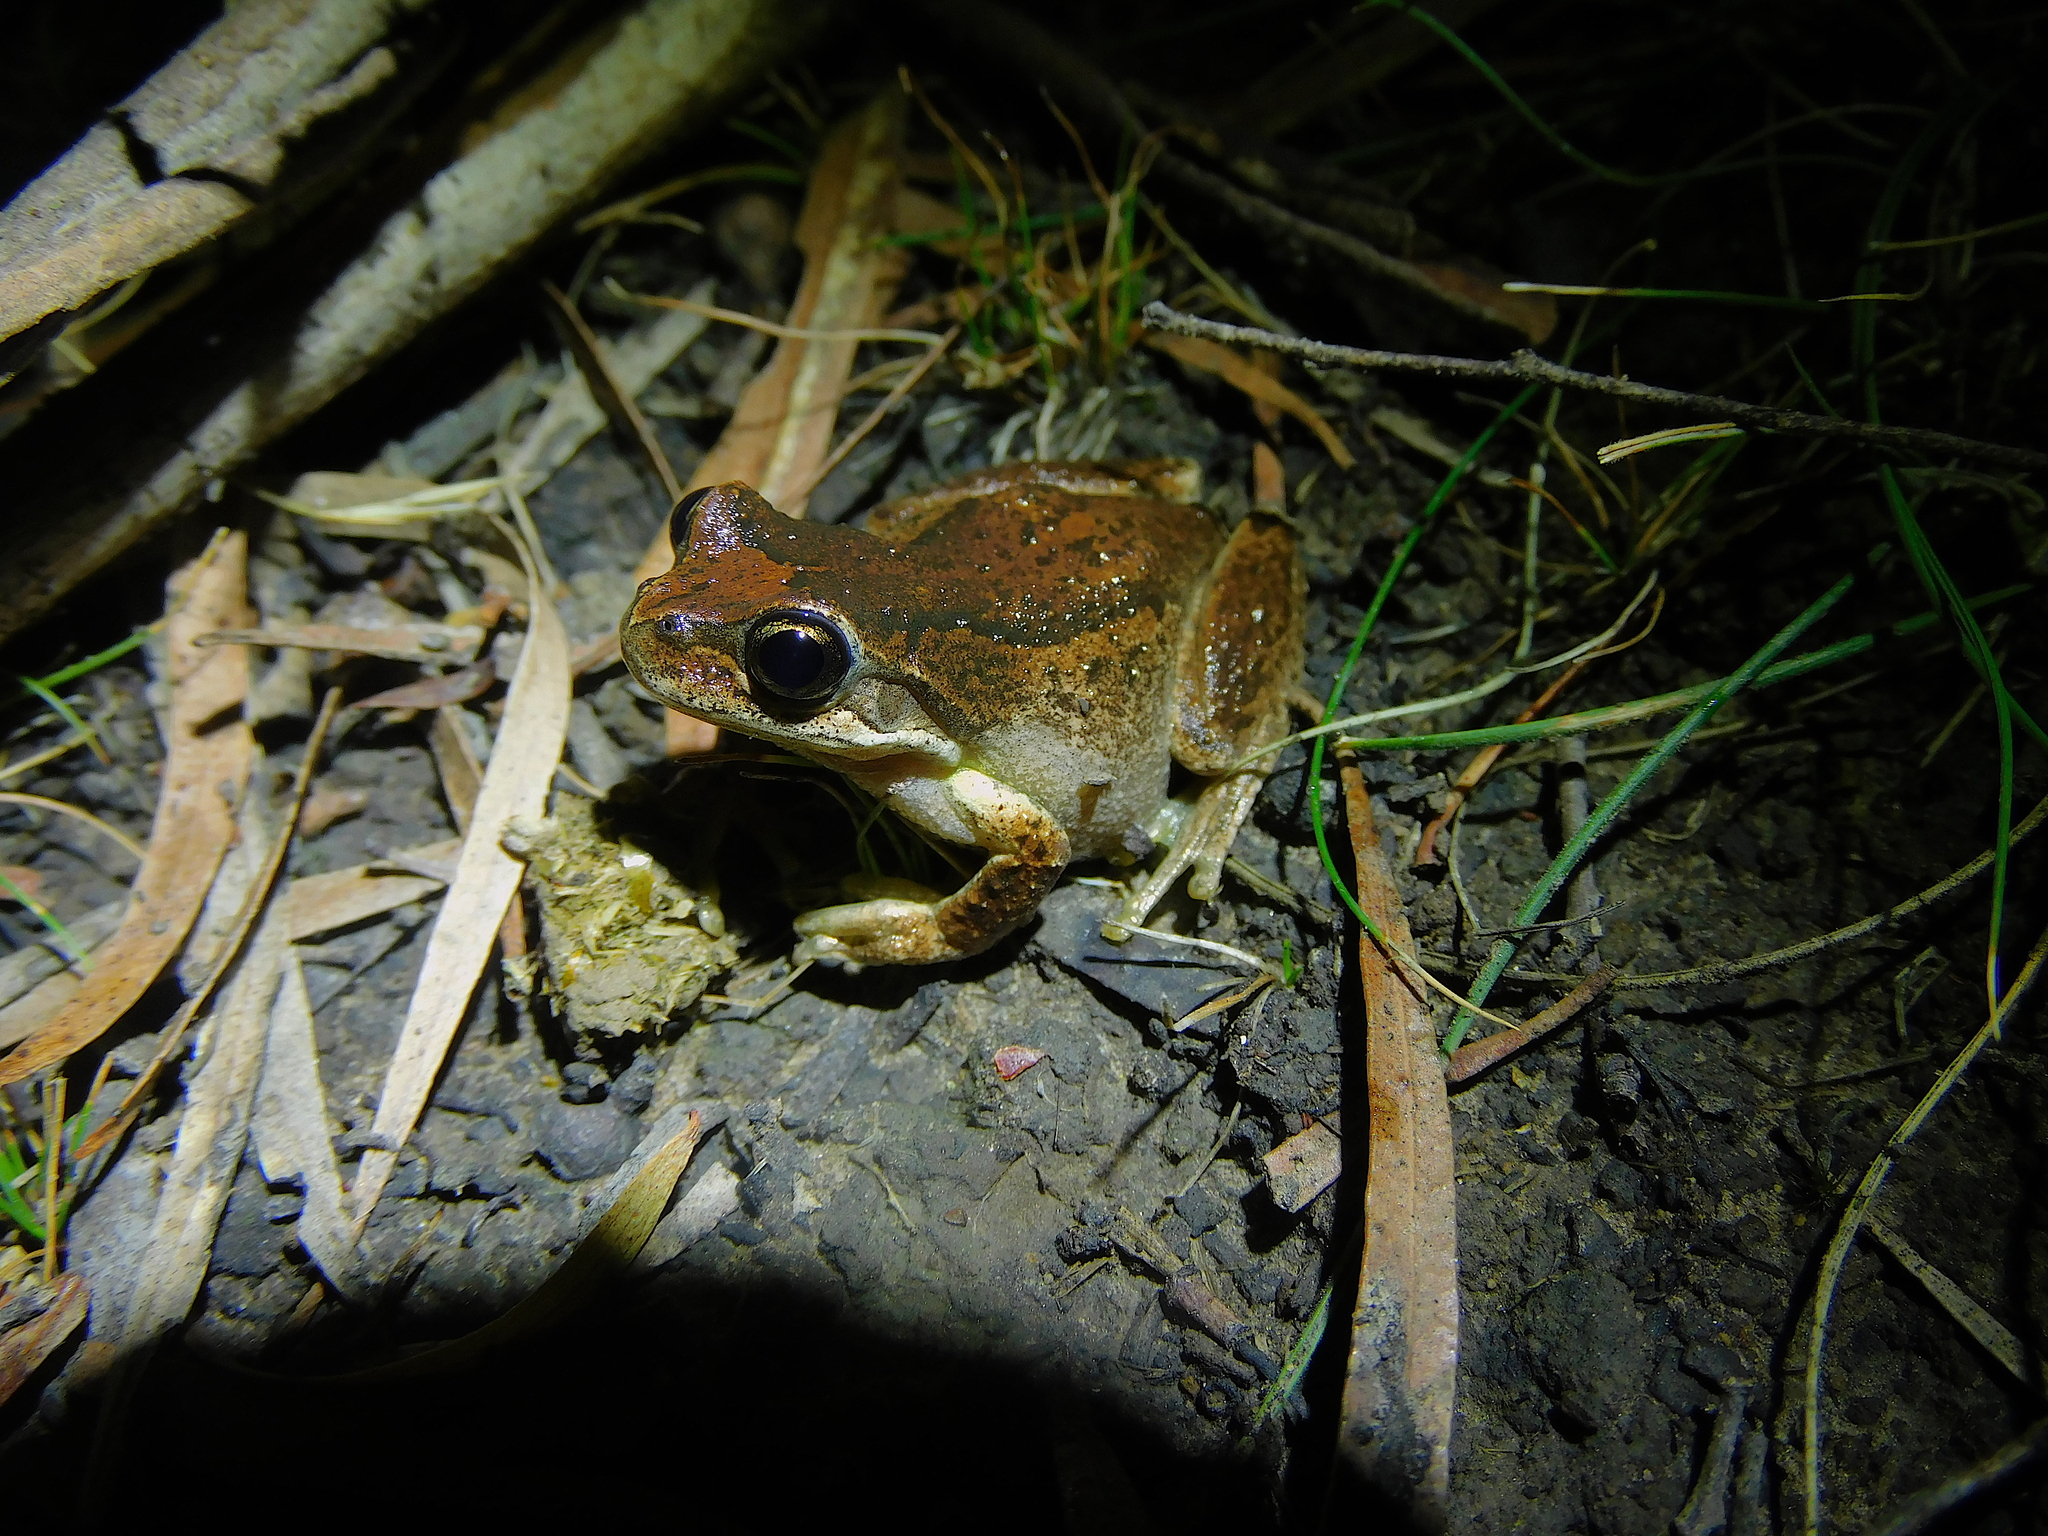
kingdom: Animalia
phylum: Chordata
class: Amphibia
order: Anura
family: Pelodryadidae
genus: Litoria
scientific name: Litoria ewingii
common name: Southern brown tree frog
